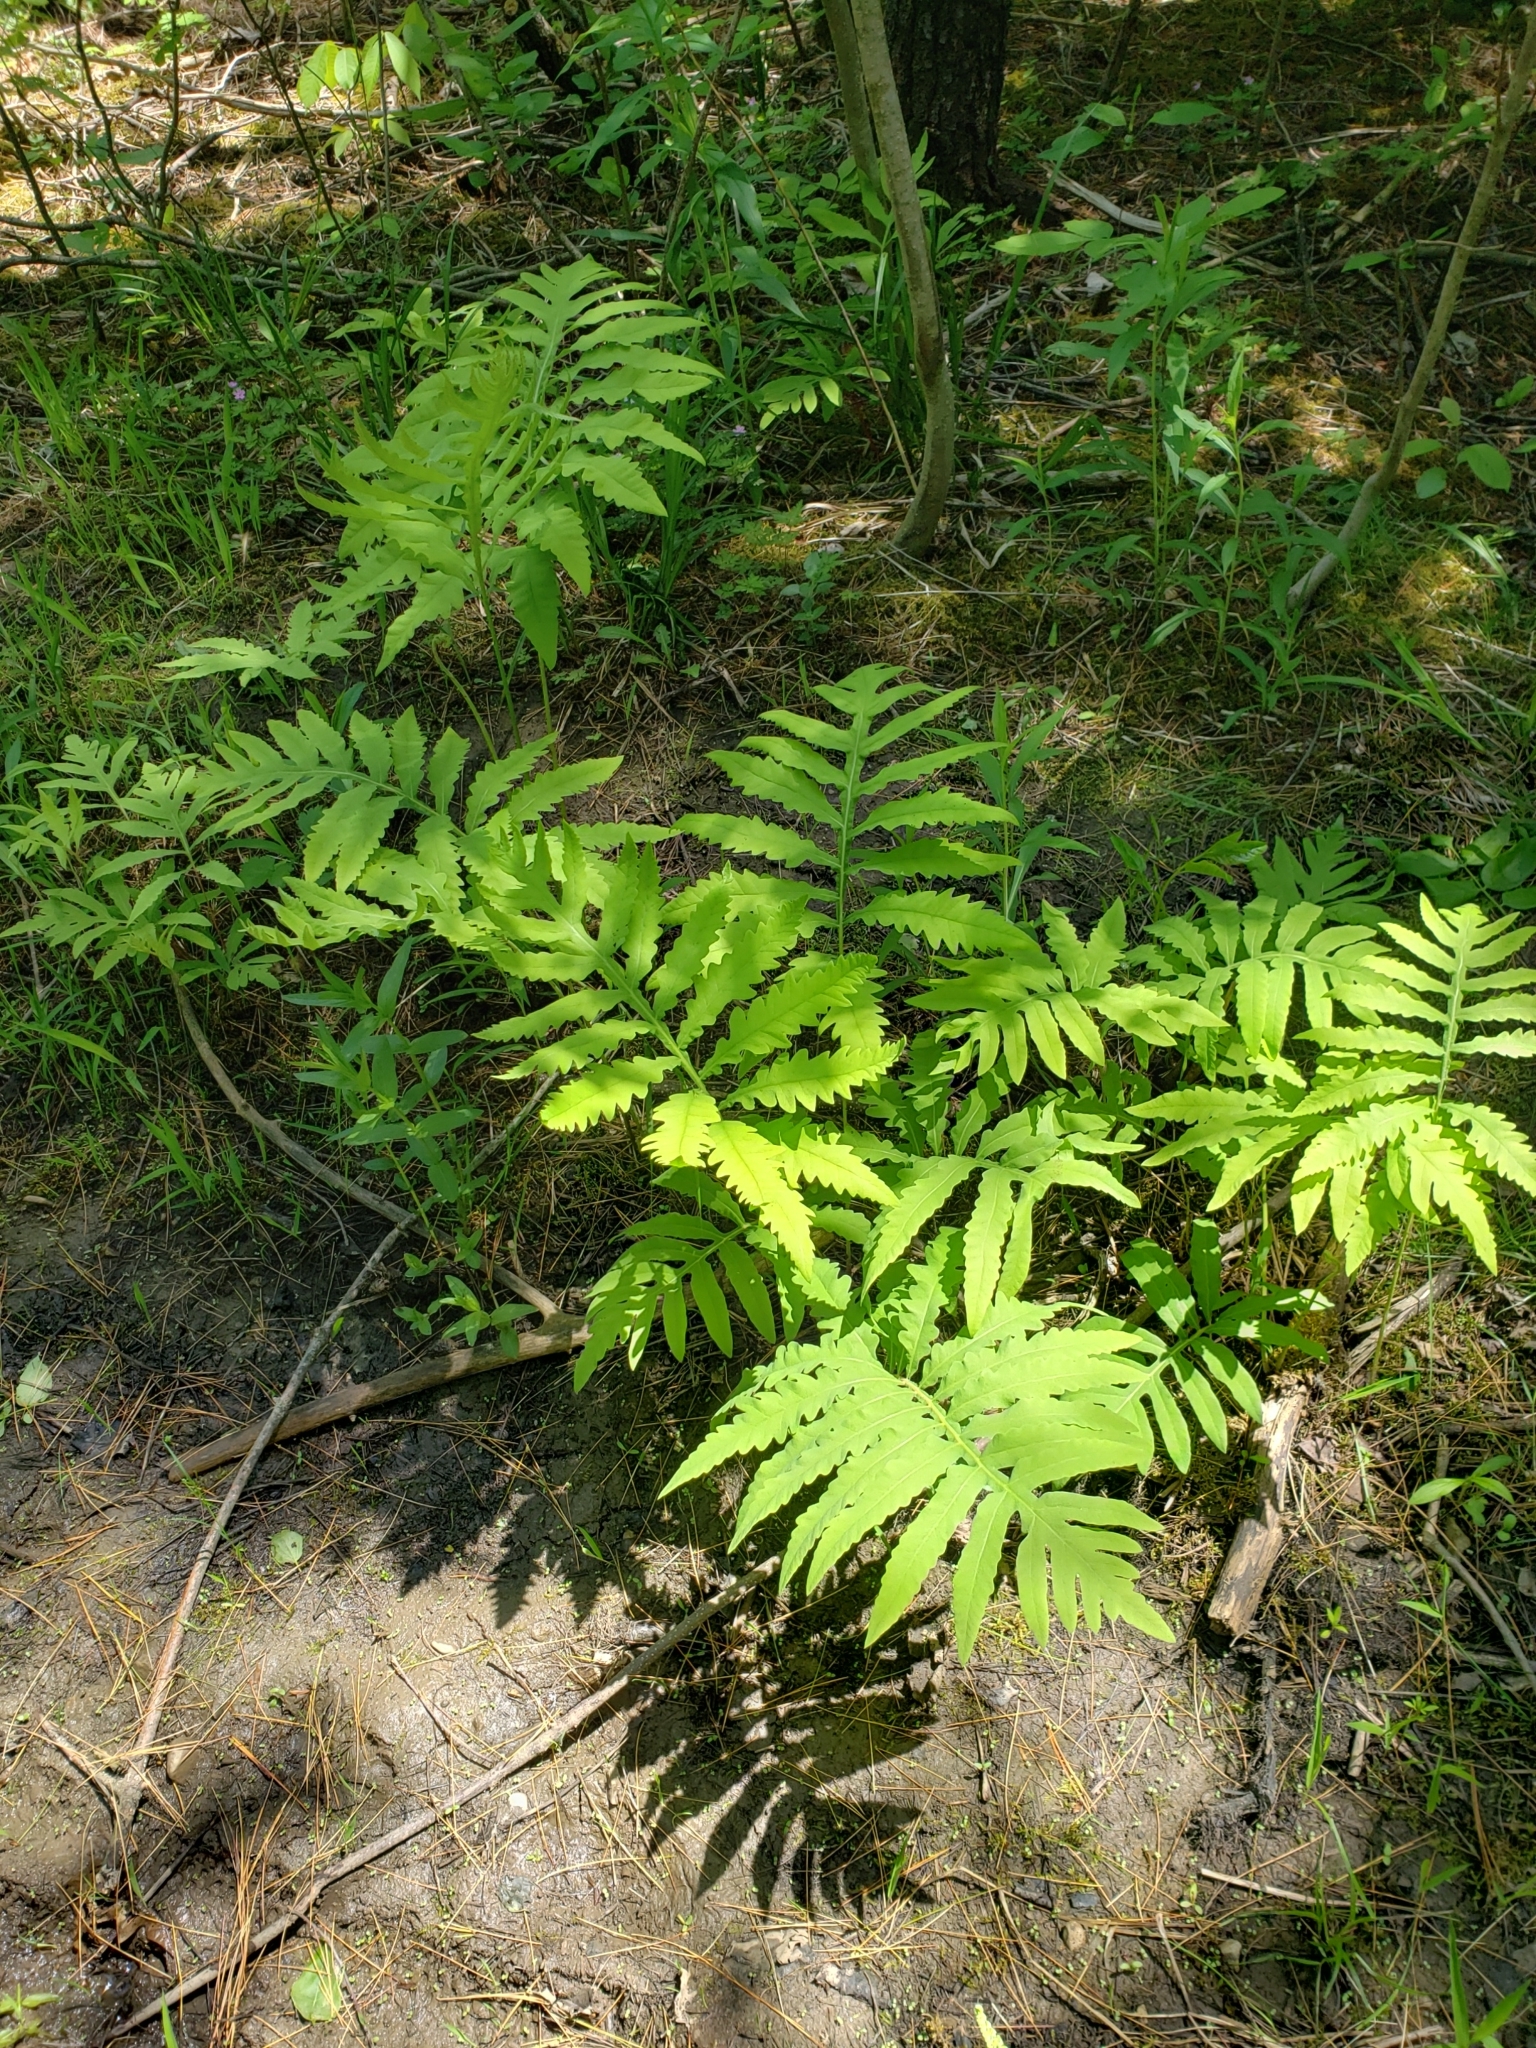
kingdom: Plantae
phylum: Tracheophyta
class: Polypodiopsida
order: Polypodiales
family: Onocleaceae
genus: Onoclea
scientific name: Onoclea sensibilis
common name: Sensitive fern
